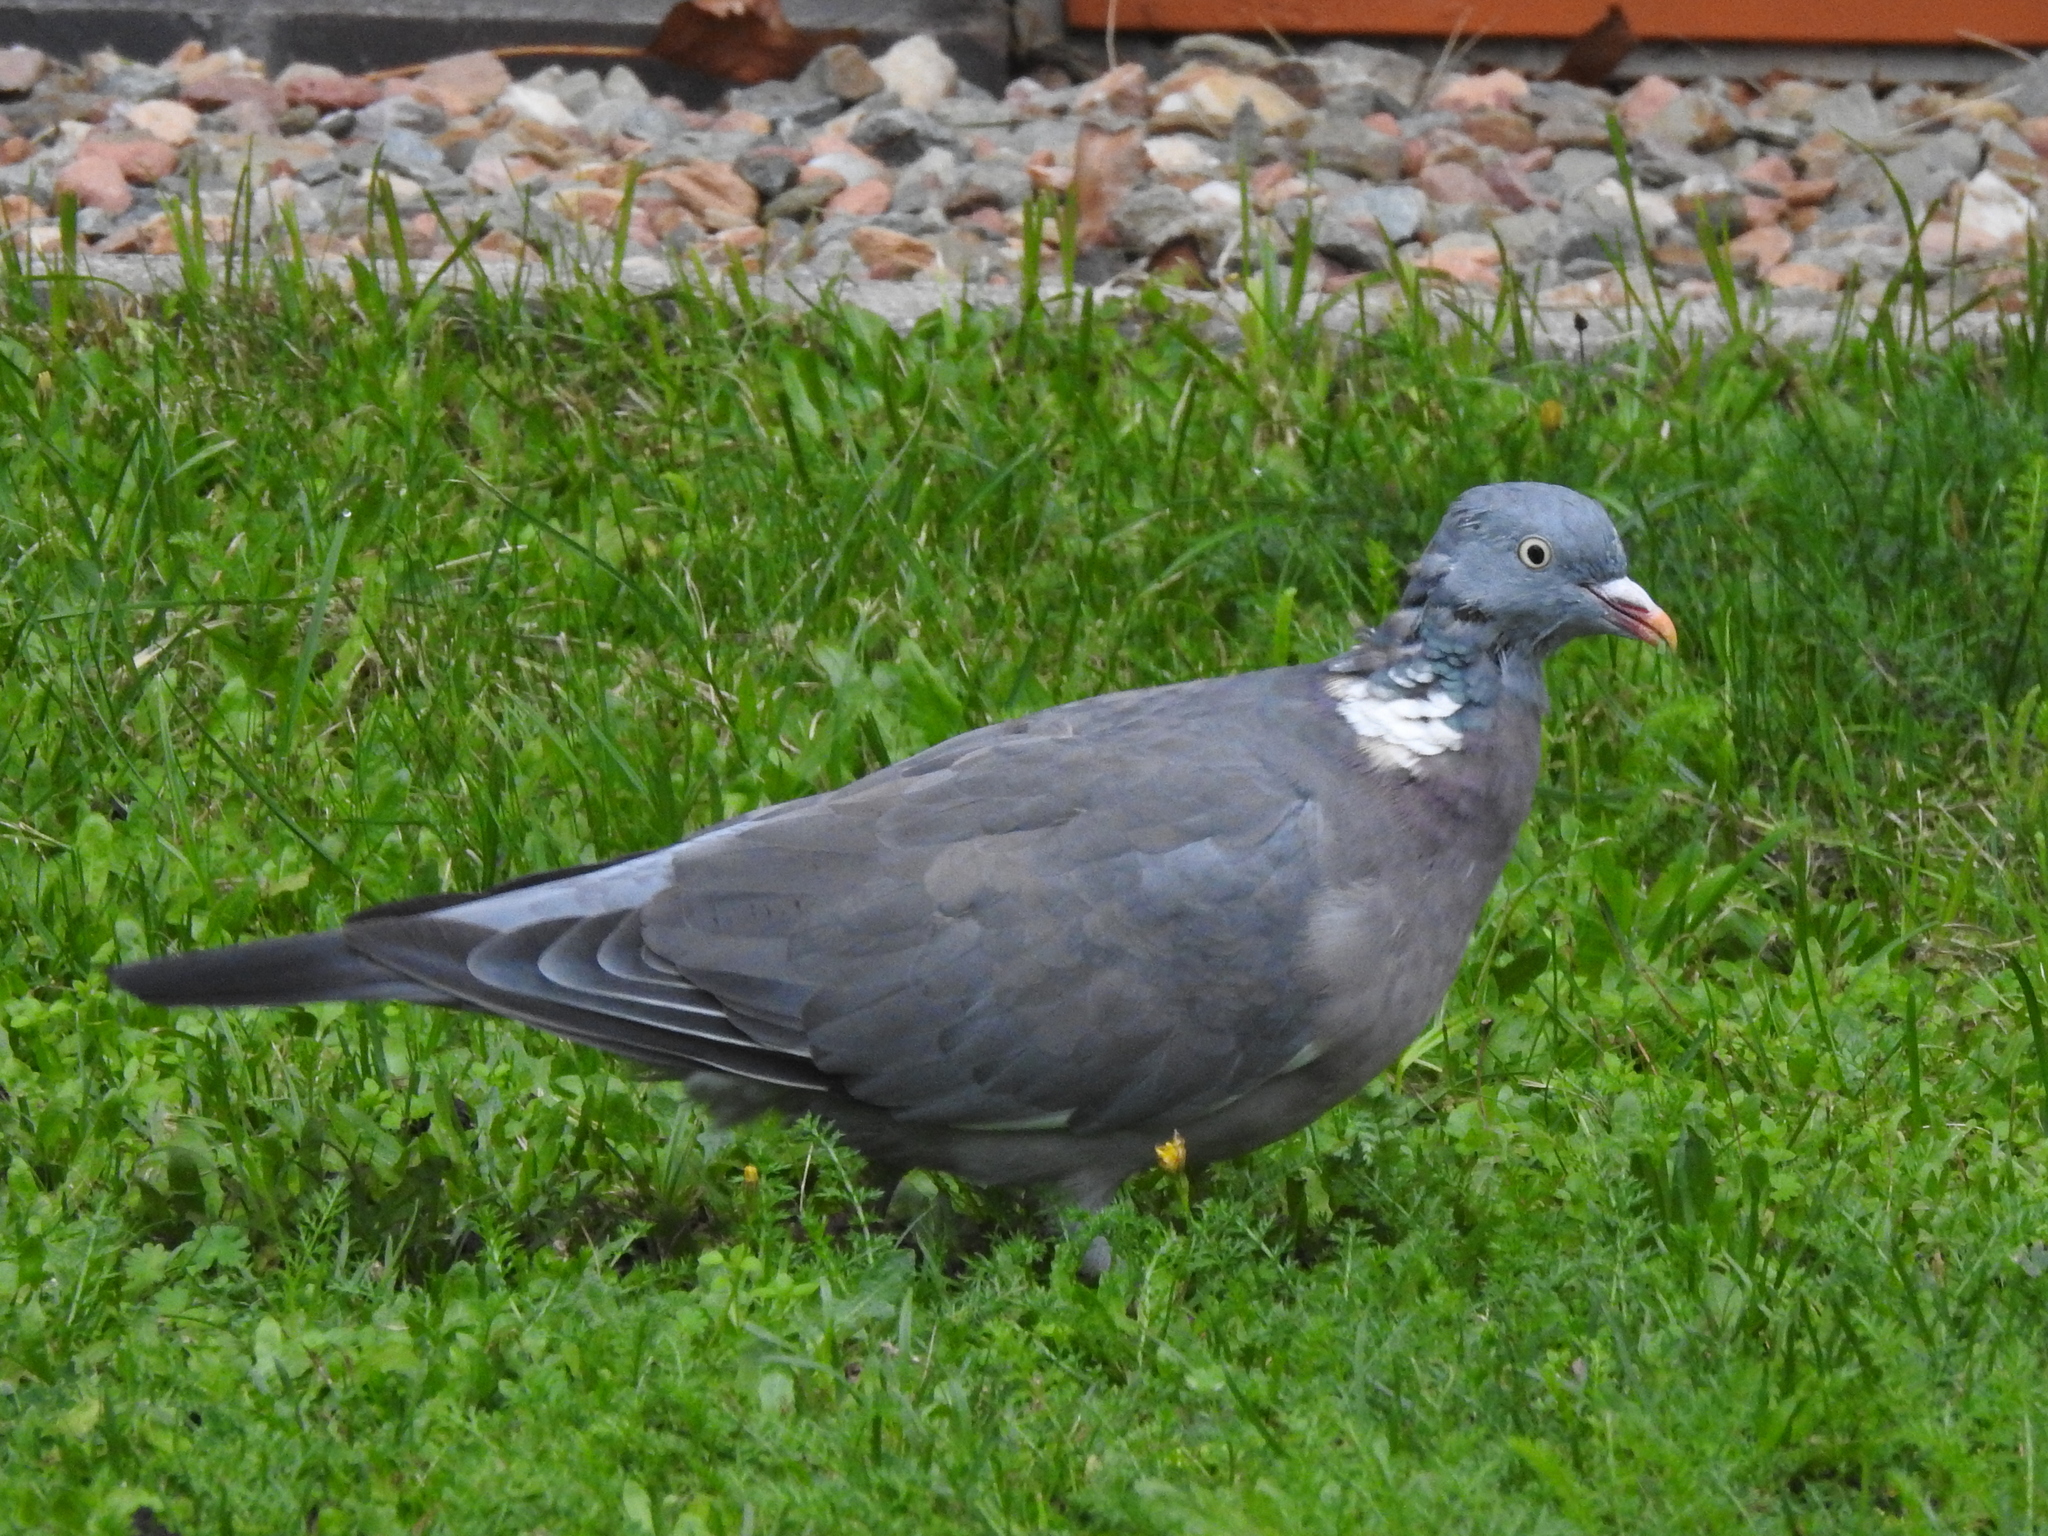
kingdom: Animalia
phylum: Chordata
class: Aves
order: Columbiformes
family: Columbidae
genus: Columba
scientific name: Columba palumbus
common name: Common wood pigeon
